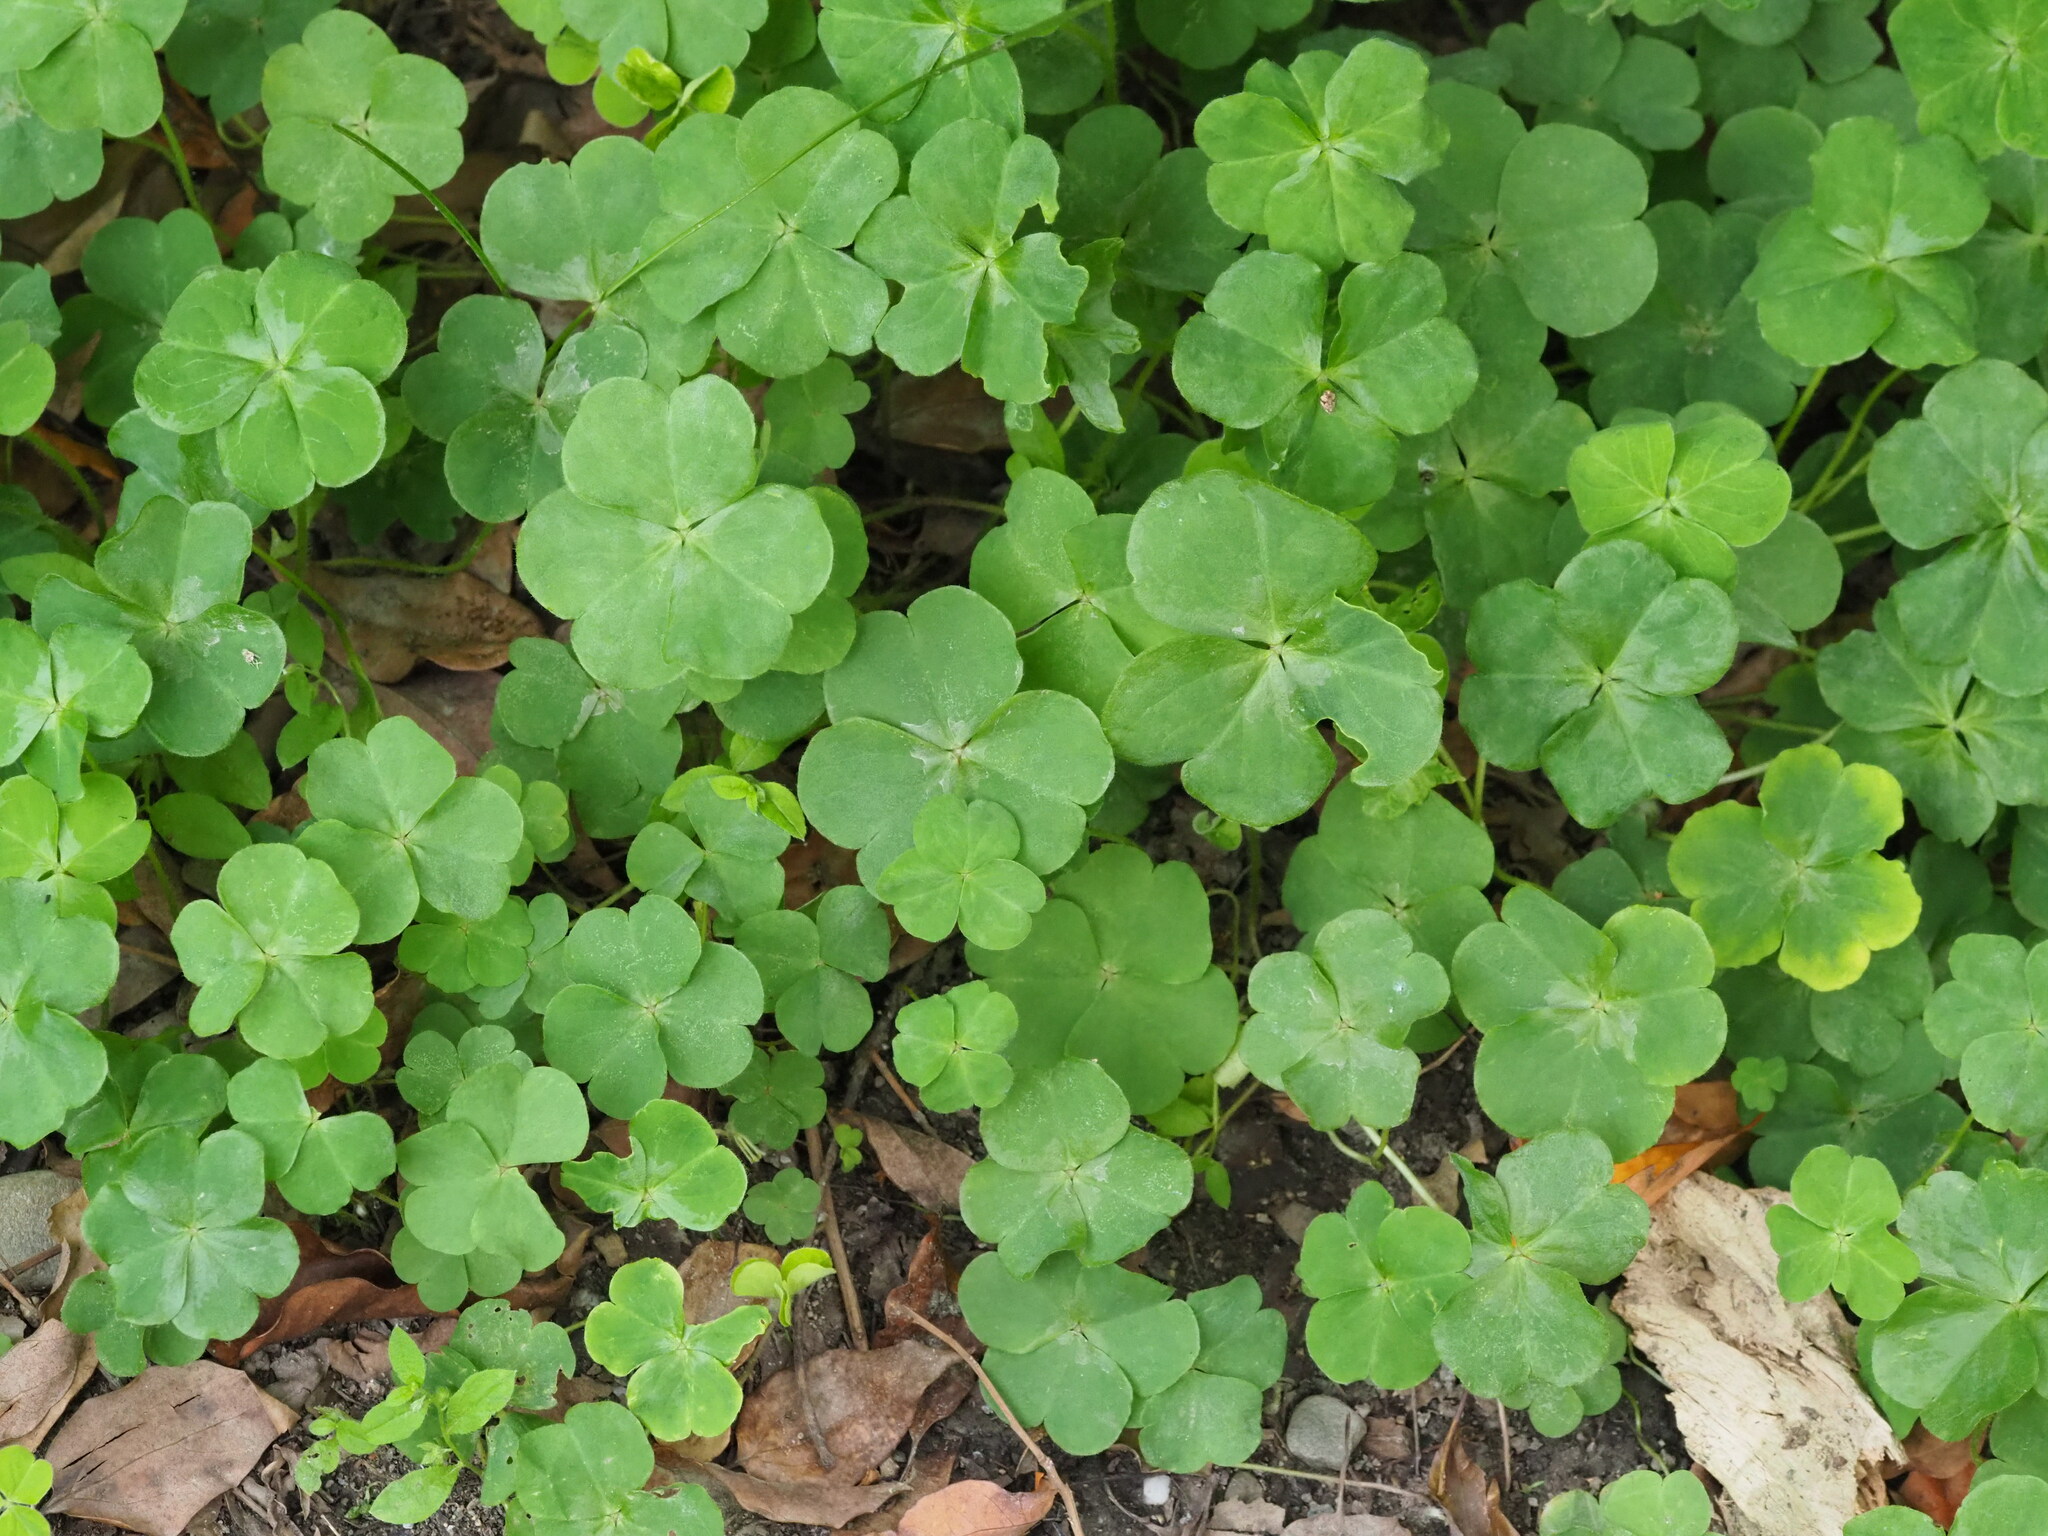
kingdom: Plantae
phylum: Tracheophyta
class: Magnoliopsida
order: Oxalidales
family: Oxalidaceae
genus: Oxalis
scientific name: Oxalis debilis
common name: Large-flowered pink-sorrel
